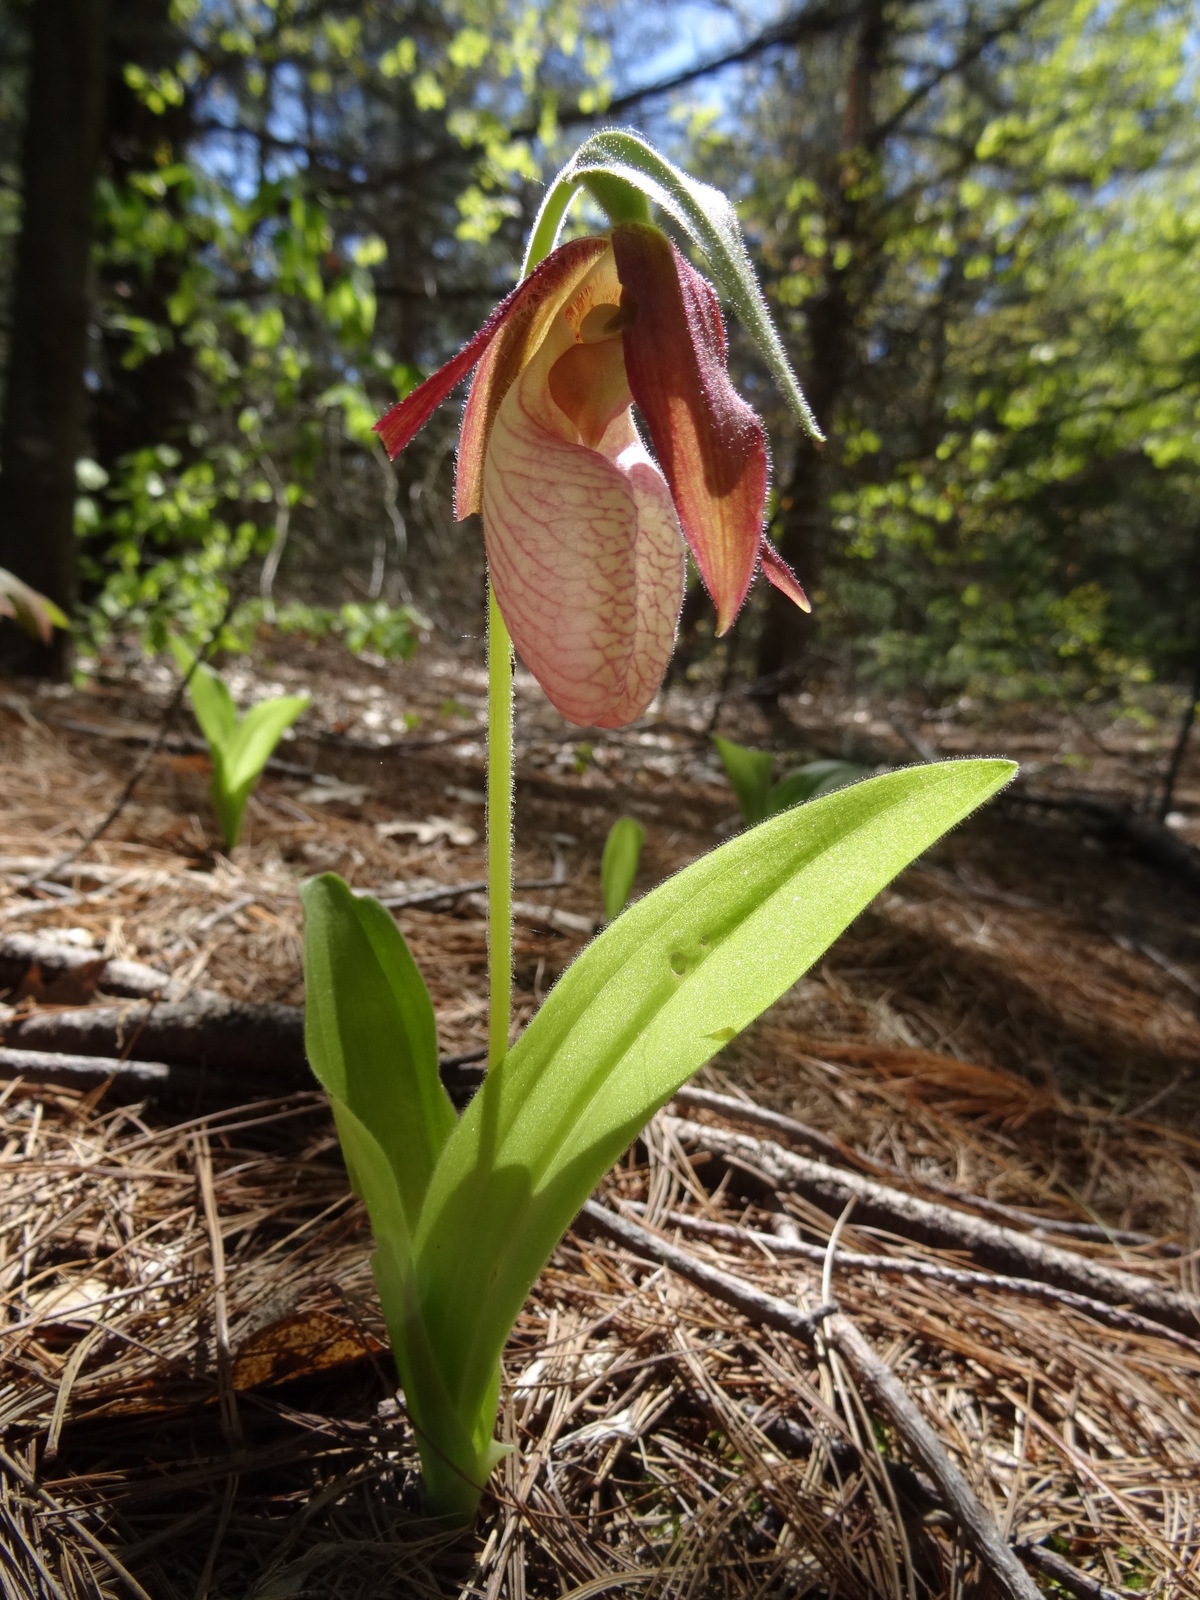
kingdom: Plantae
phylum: Tracheophyta
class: Liliopsida
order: Asparagales
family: Orchidaceae
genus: Cypripedium
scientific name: Cypripedium acaule
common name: Pink lady's-slipper
